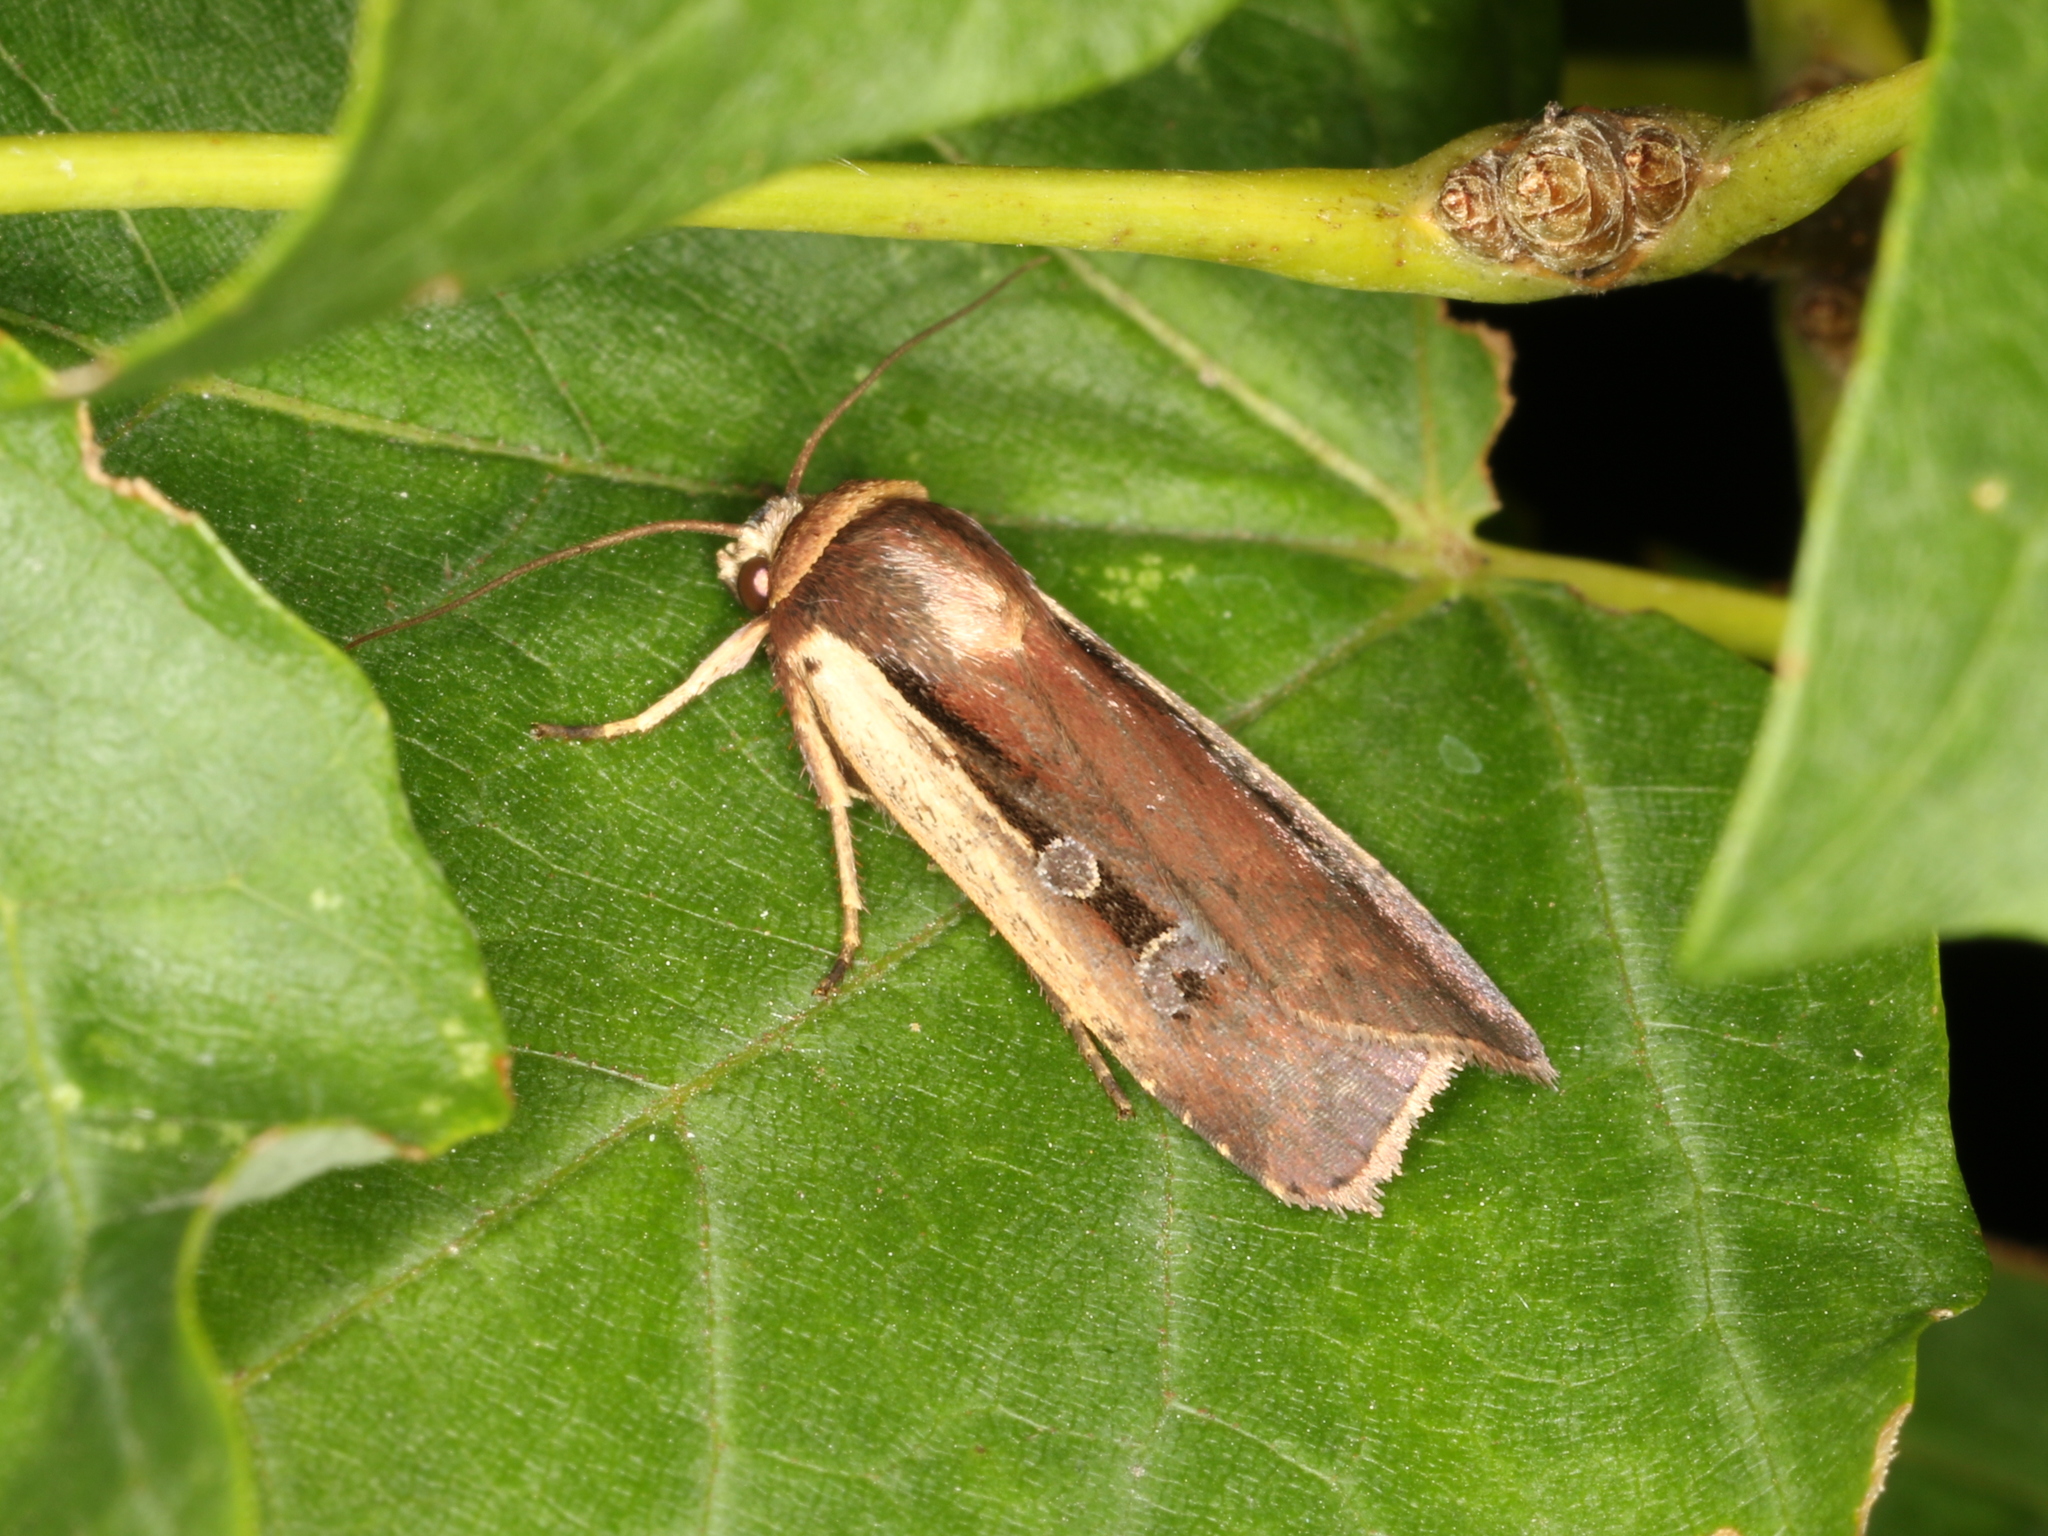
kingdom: Animalia
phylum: Arthropoda
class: Insecta
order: Lepidoptera
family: Noctuidae
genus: Ochropleura
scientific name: Ochropleura implecta
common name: Flame-shouldered dart
